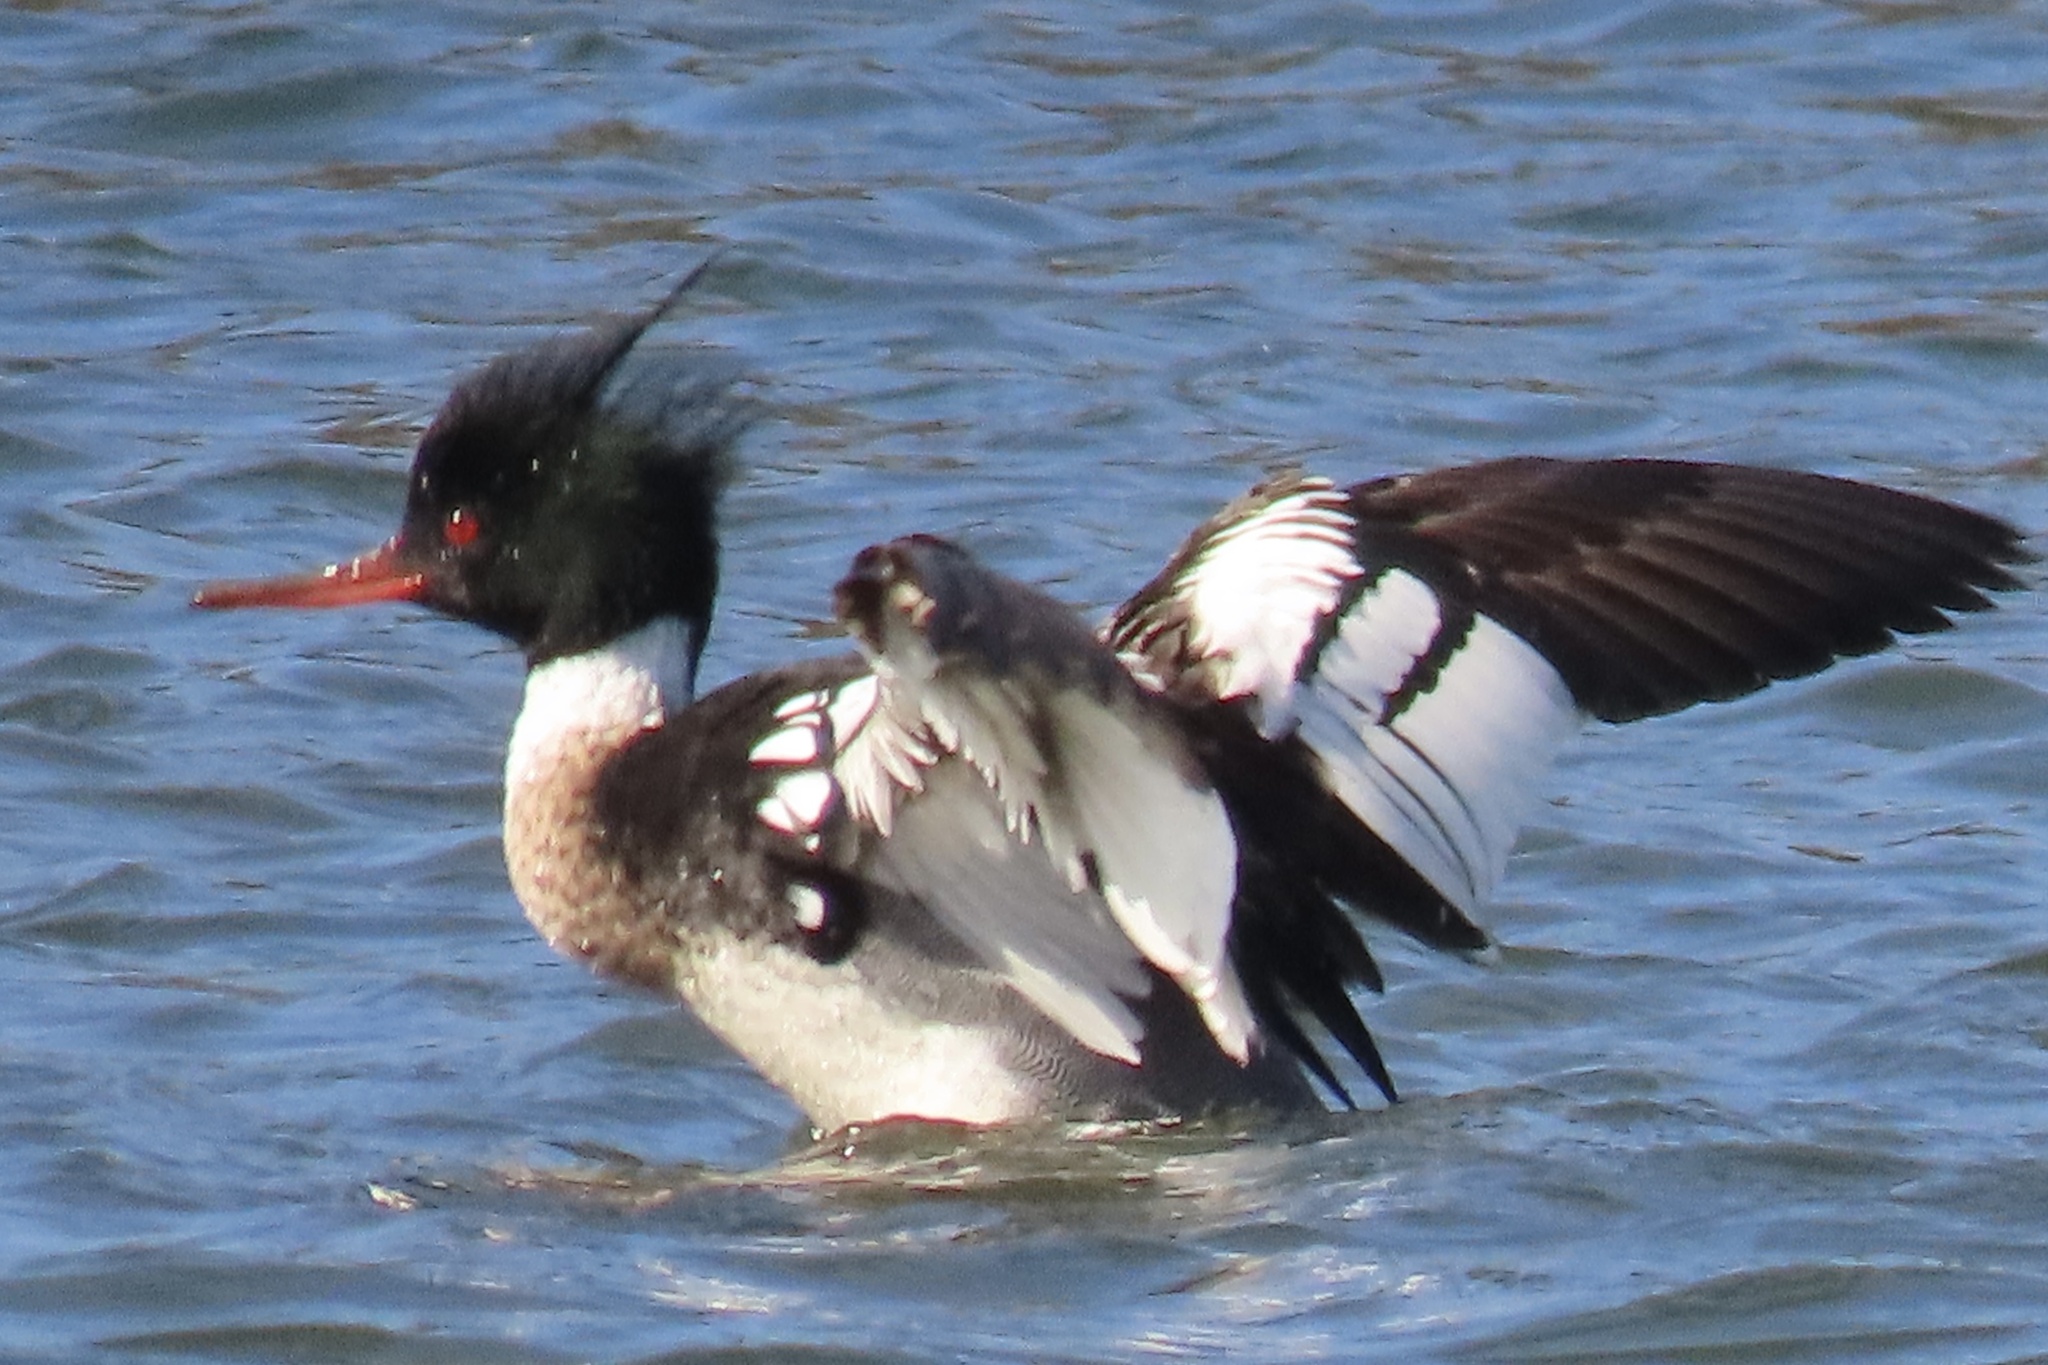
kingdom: Animalia
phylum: Chordata
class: Aves
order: Anseriformes
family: Anatidae
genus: Mergus
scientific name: Mergus serrator
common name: Red-breasted merganser
